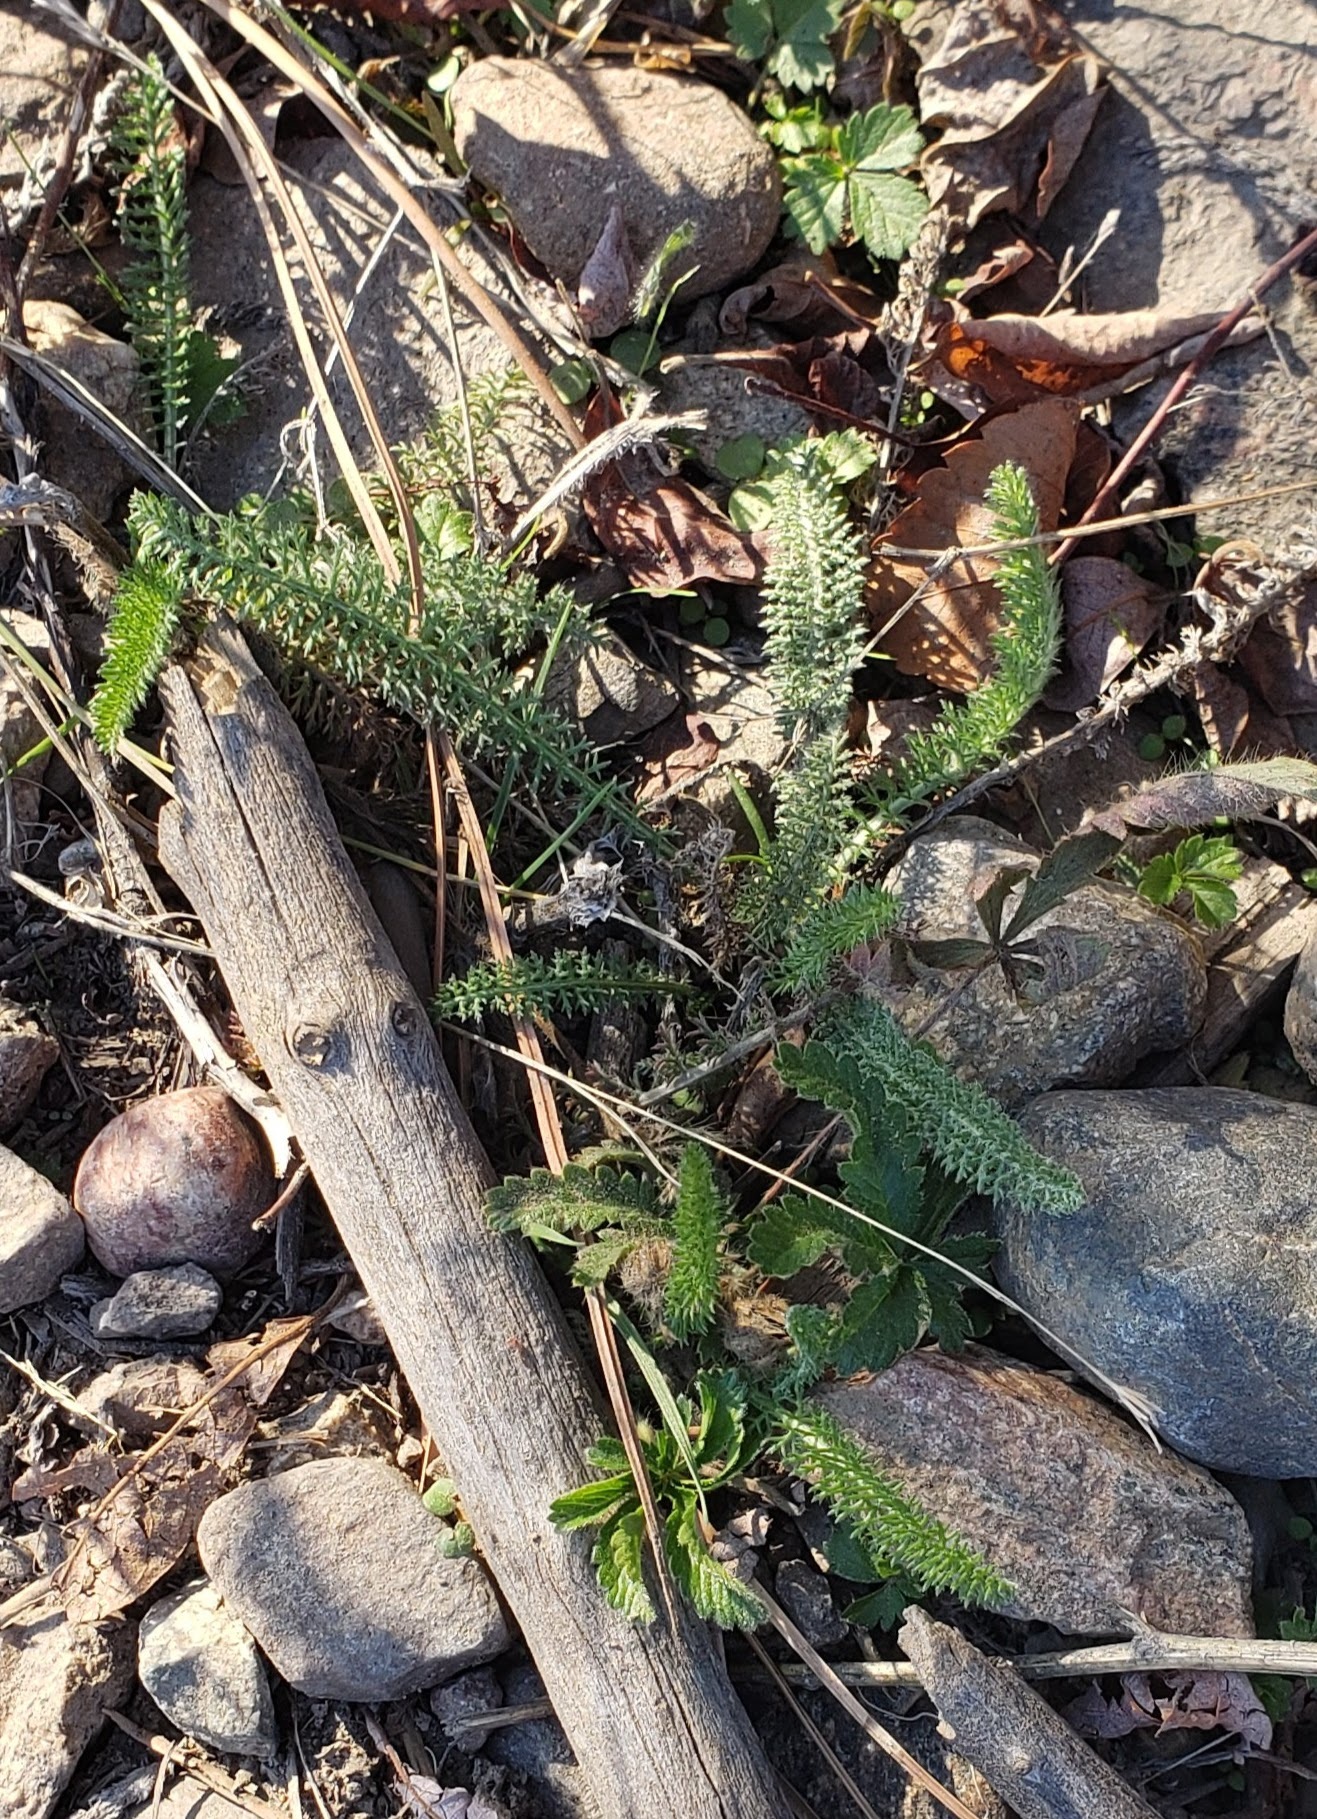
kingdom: Plantae
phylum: Tracheophyta
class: Magnoliopsida
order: Asterales
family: Asteraceae
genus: Achillea
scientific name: Achillea millefolium
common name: Yarrow
